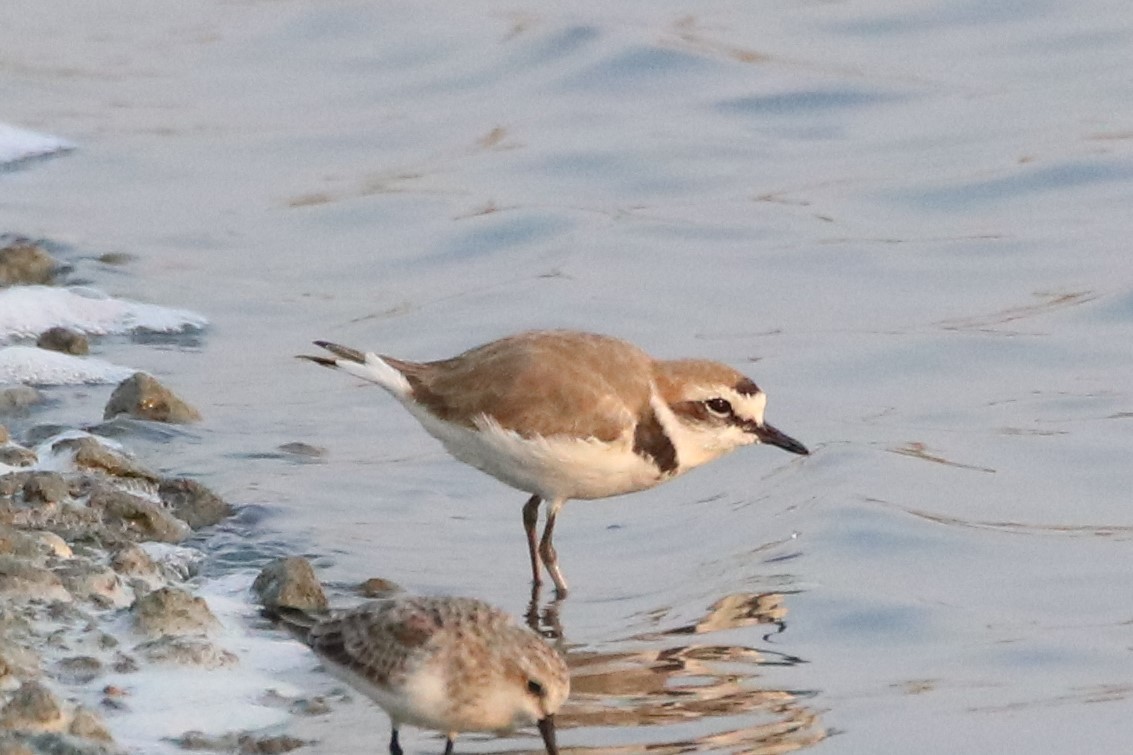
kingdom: Animalia
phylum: Chordata
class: Aves
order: Charadriiformes
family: Charadriidae
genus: Charadrius
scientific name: Charadrius alexandrinus
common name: Kentish plover
